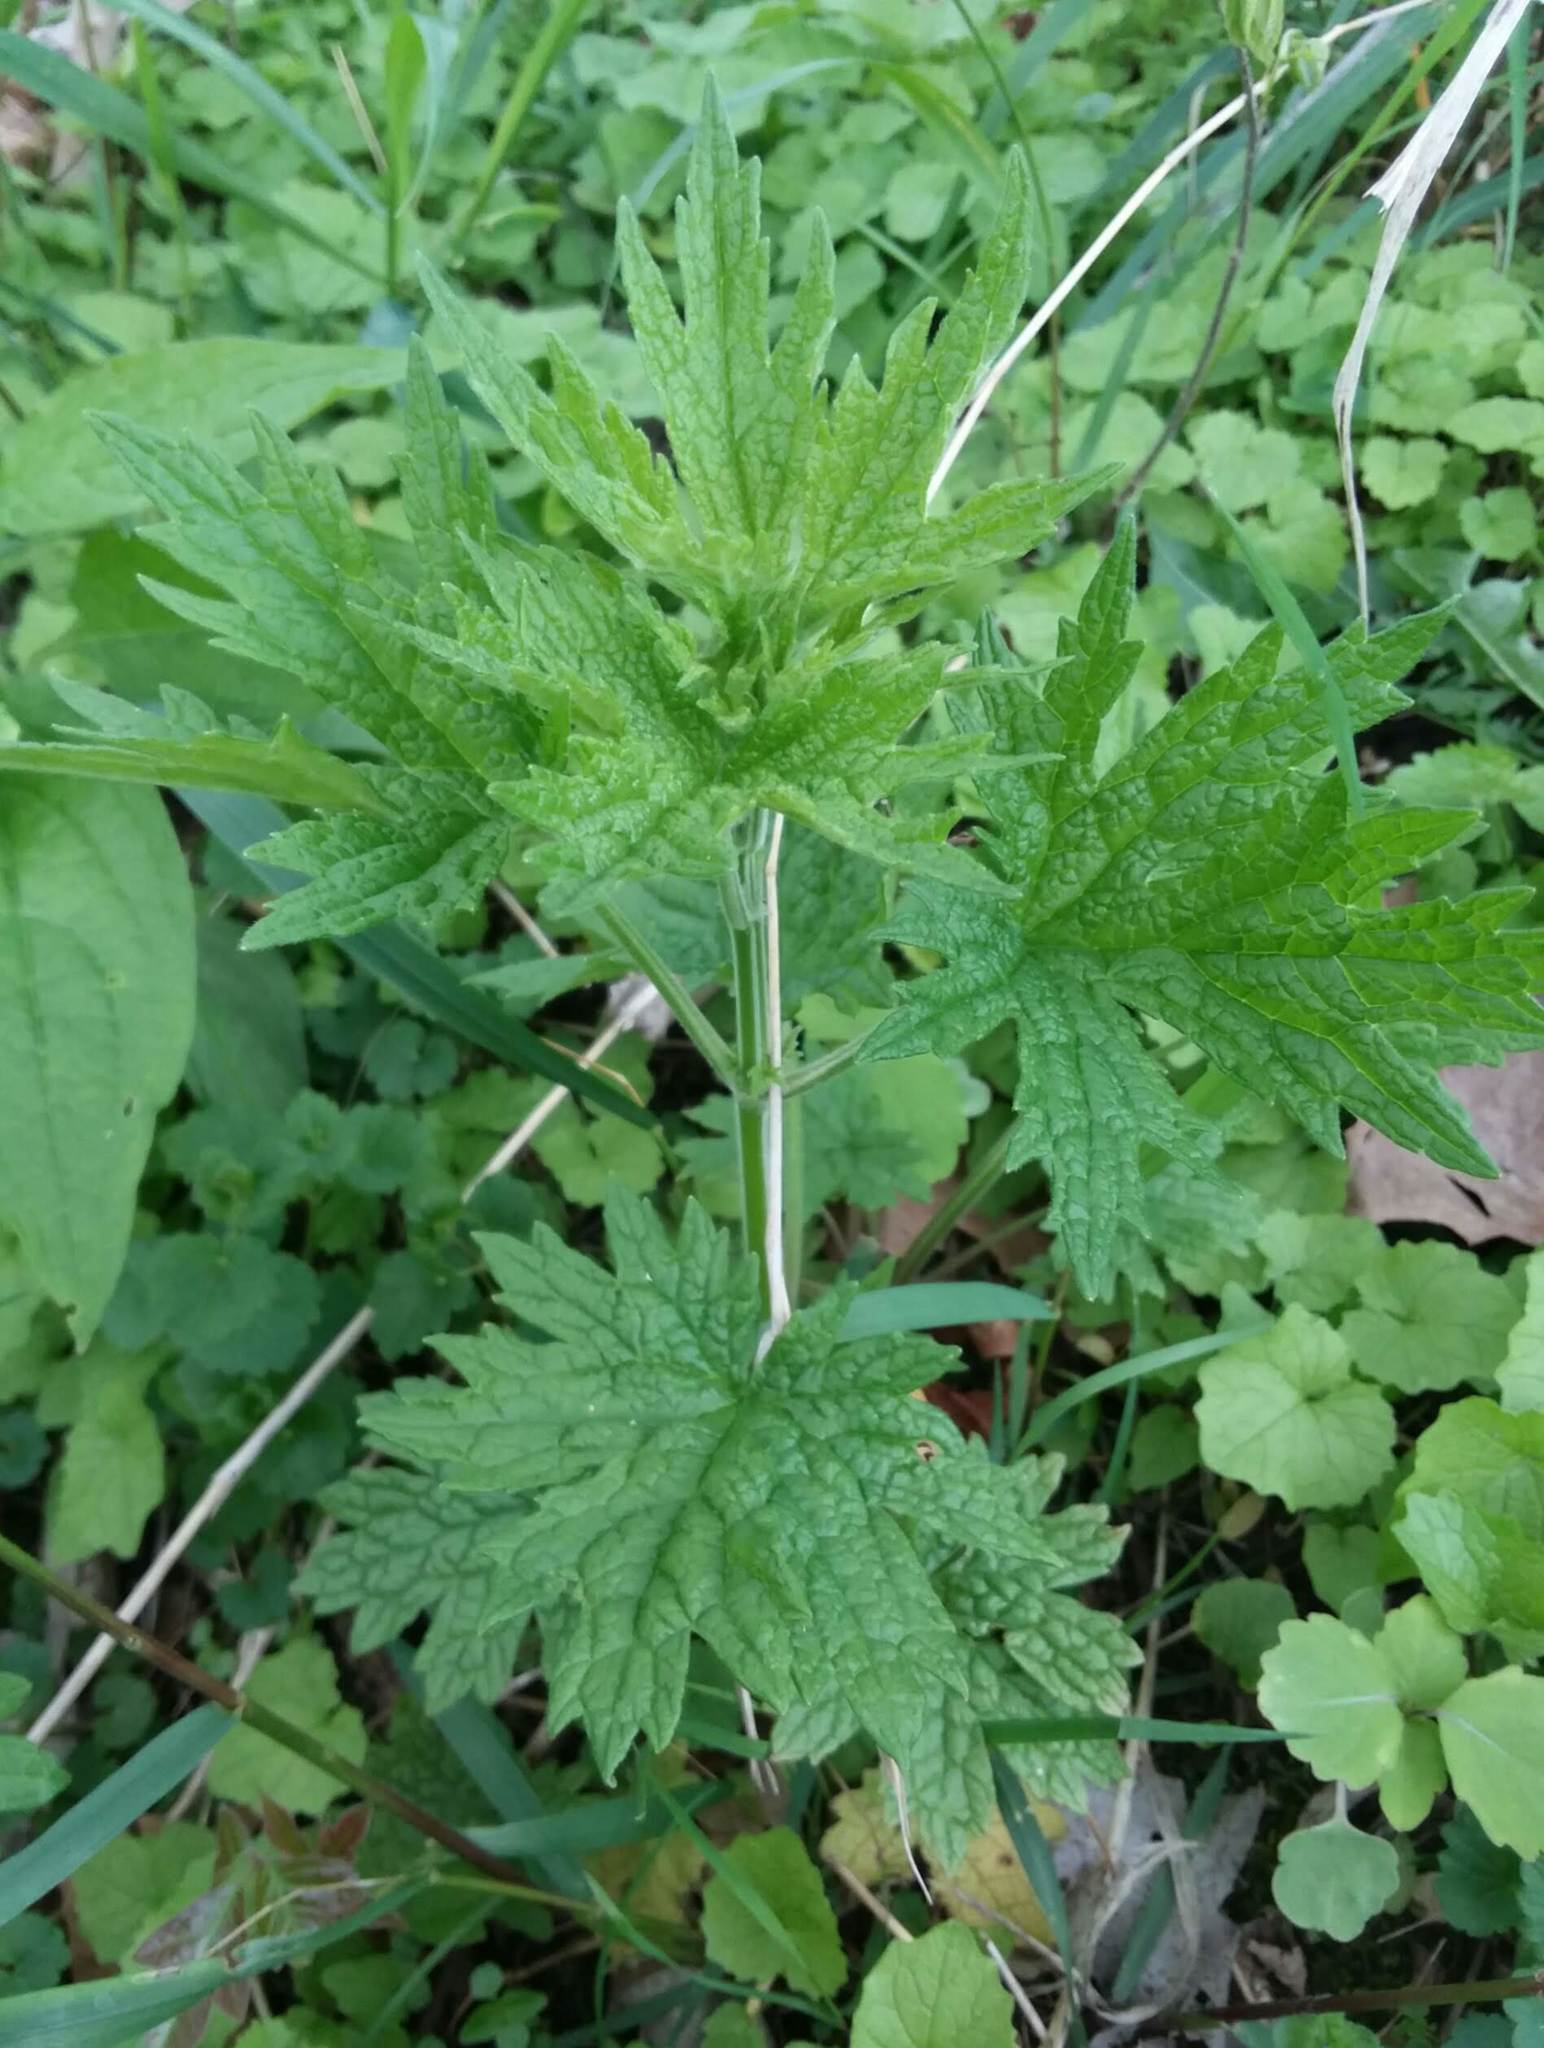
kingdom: Plantae
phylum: Tracheophyta
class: Magnoliopsida
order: Lamiales
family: Lamiaceae
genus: Leonurus
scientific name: Leonurus cardiaca
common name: Motherwort
